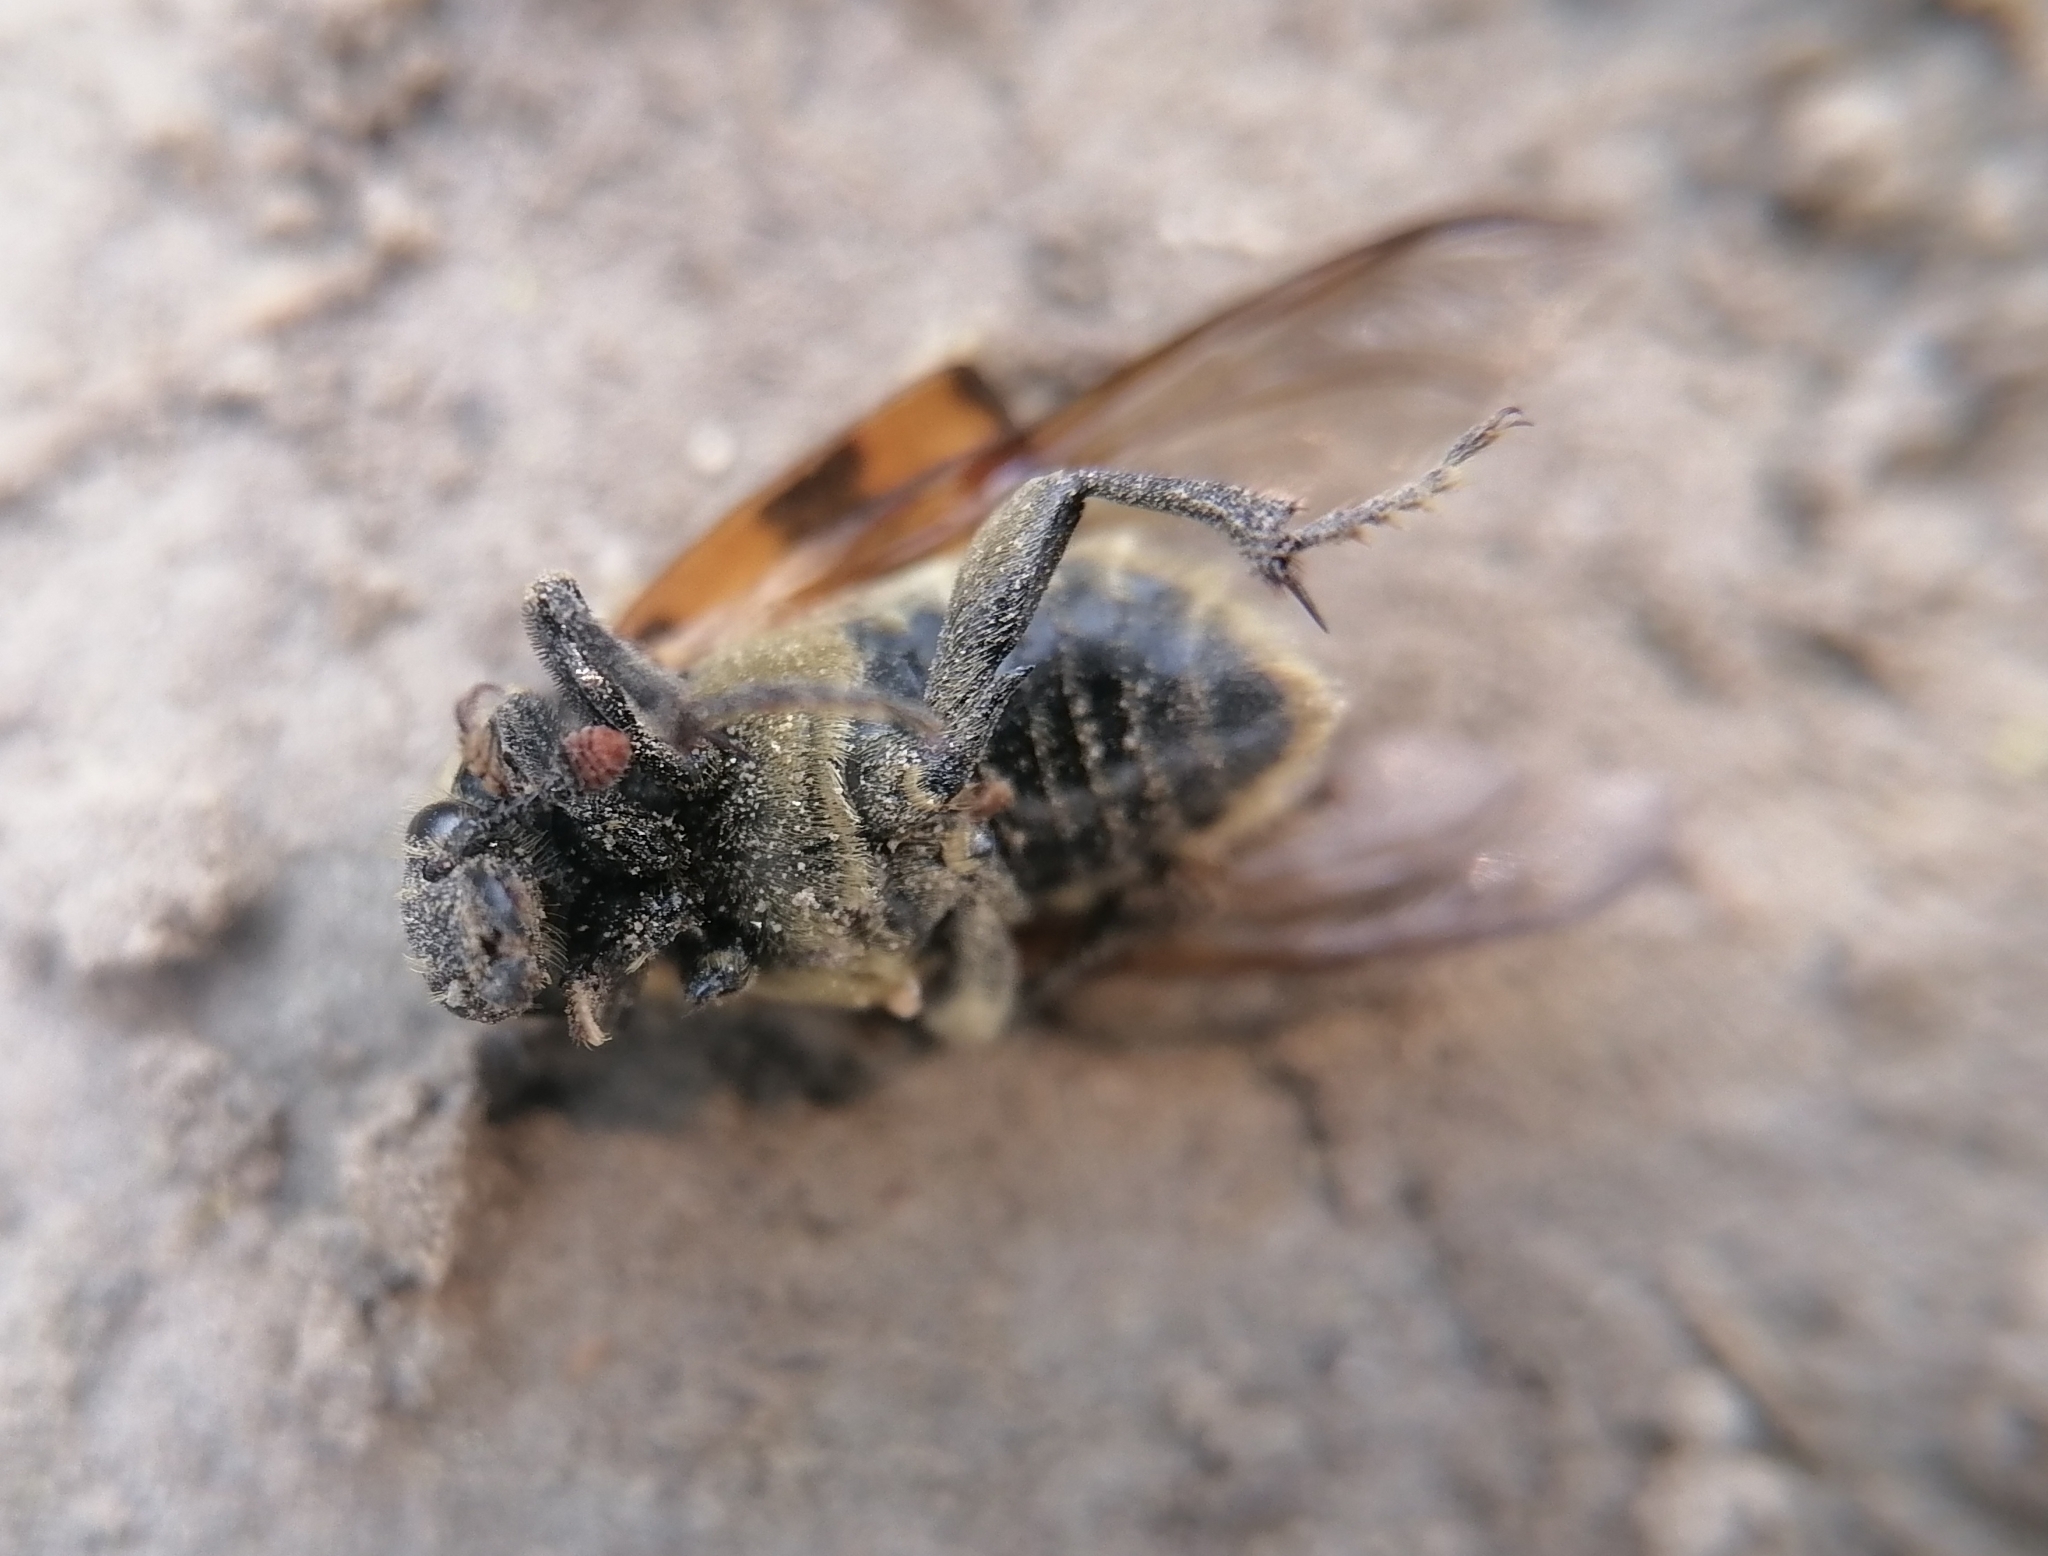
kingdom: Animalia
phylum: Arthropoda
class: Insecta
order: Coleoptera
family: Staphylinidae
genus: Nicrophorus
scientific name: Nicrophorus vespillo
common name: Common burying beetle
